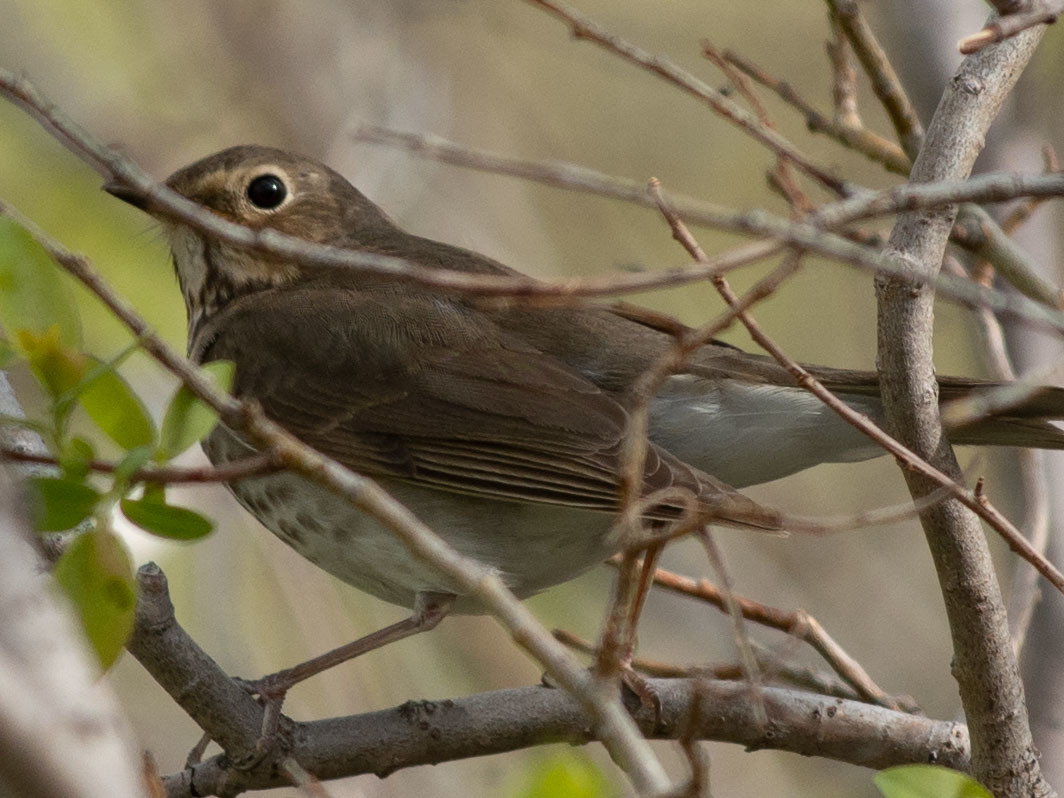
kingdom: Animalia
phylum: Chordata
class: Aves
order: Passeriformes
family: Turdidae
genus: Catharus
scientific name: Catharus ustulatus
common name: Swainson's thrush
